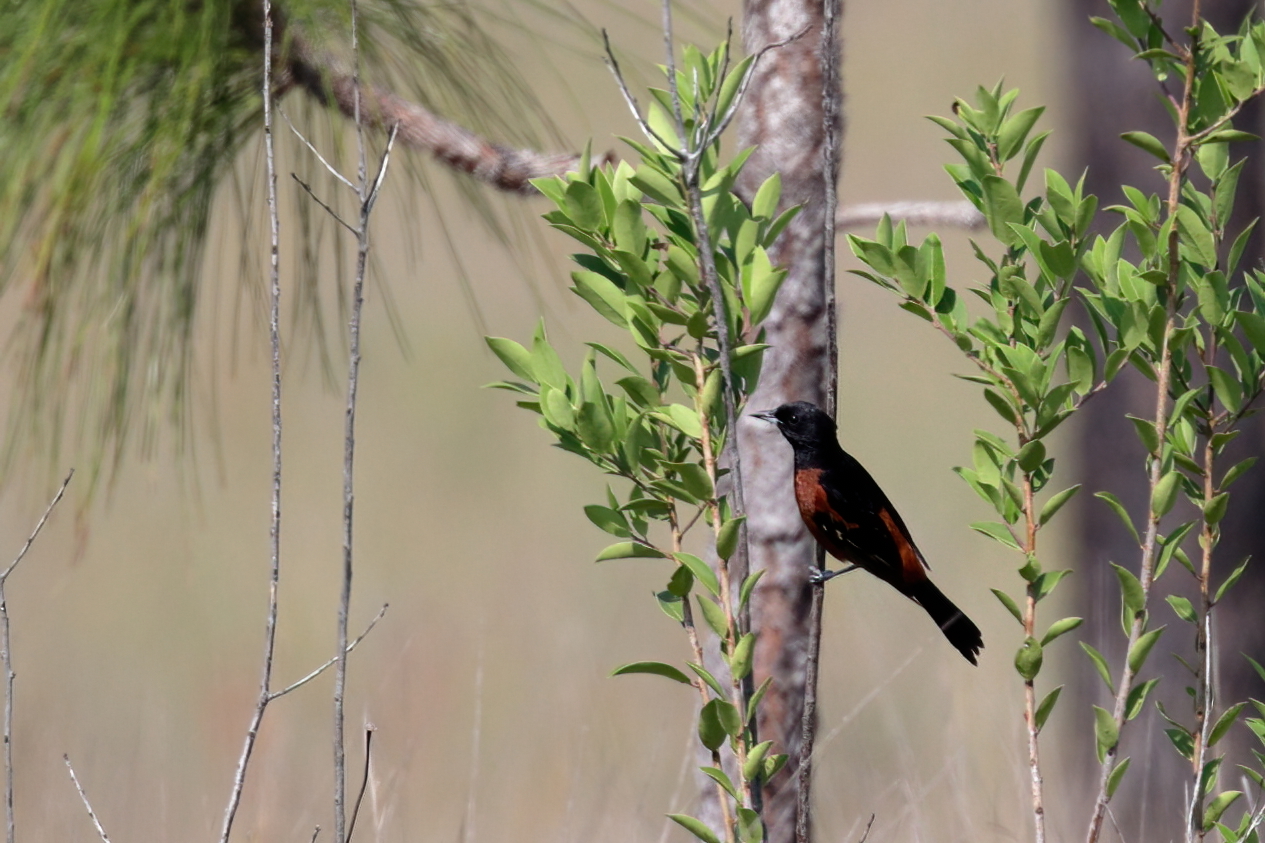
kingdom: Animalia
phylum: Chordata
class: Aves
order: Passeriformes
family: Icteridae
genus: Icterus
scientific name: Icterus spurius
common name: Orchard oriole
